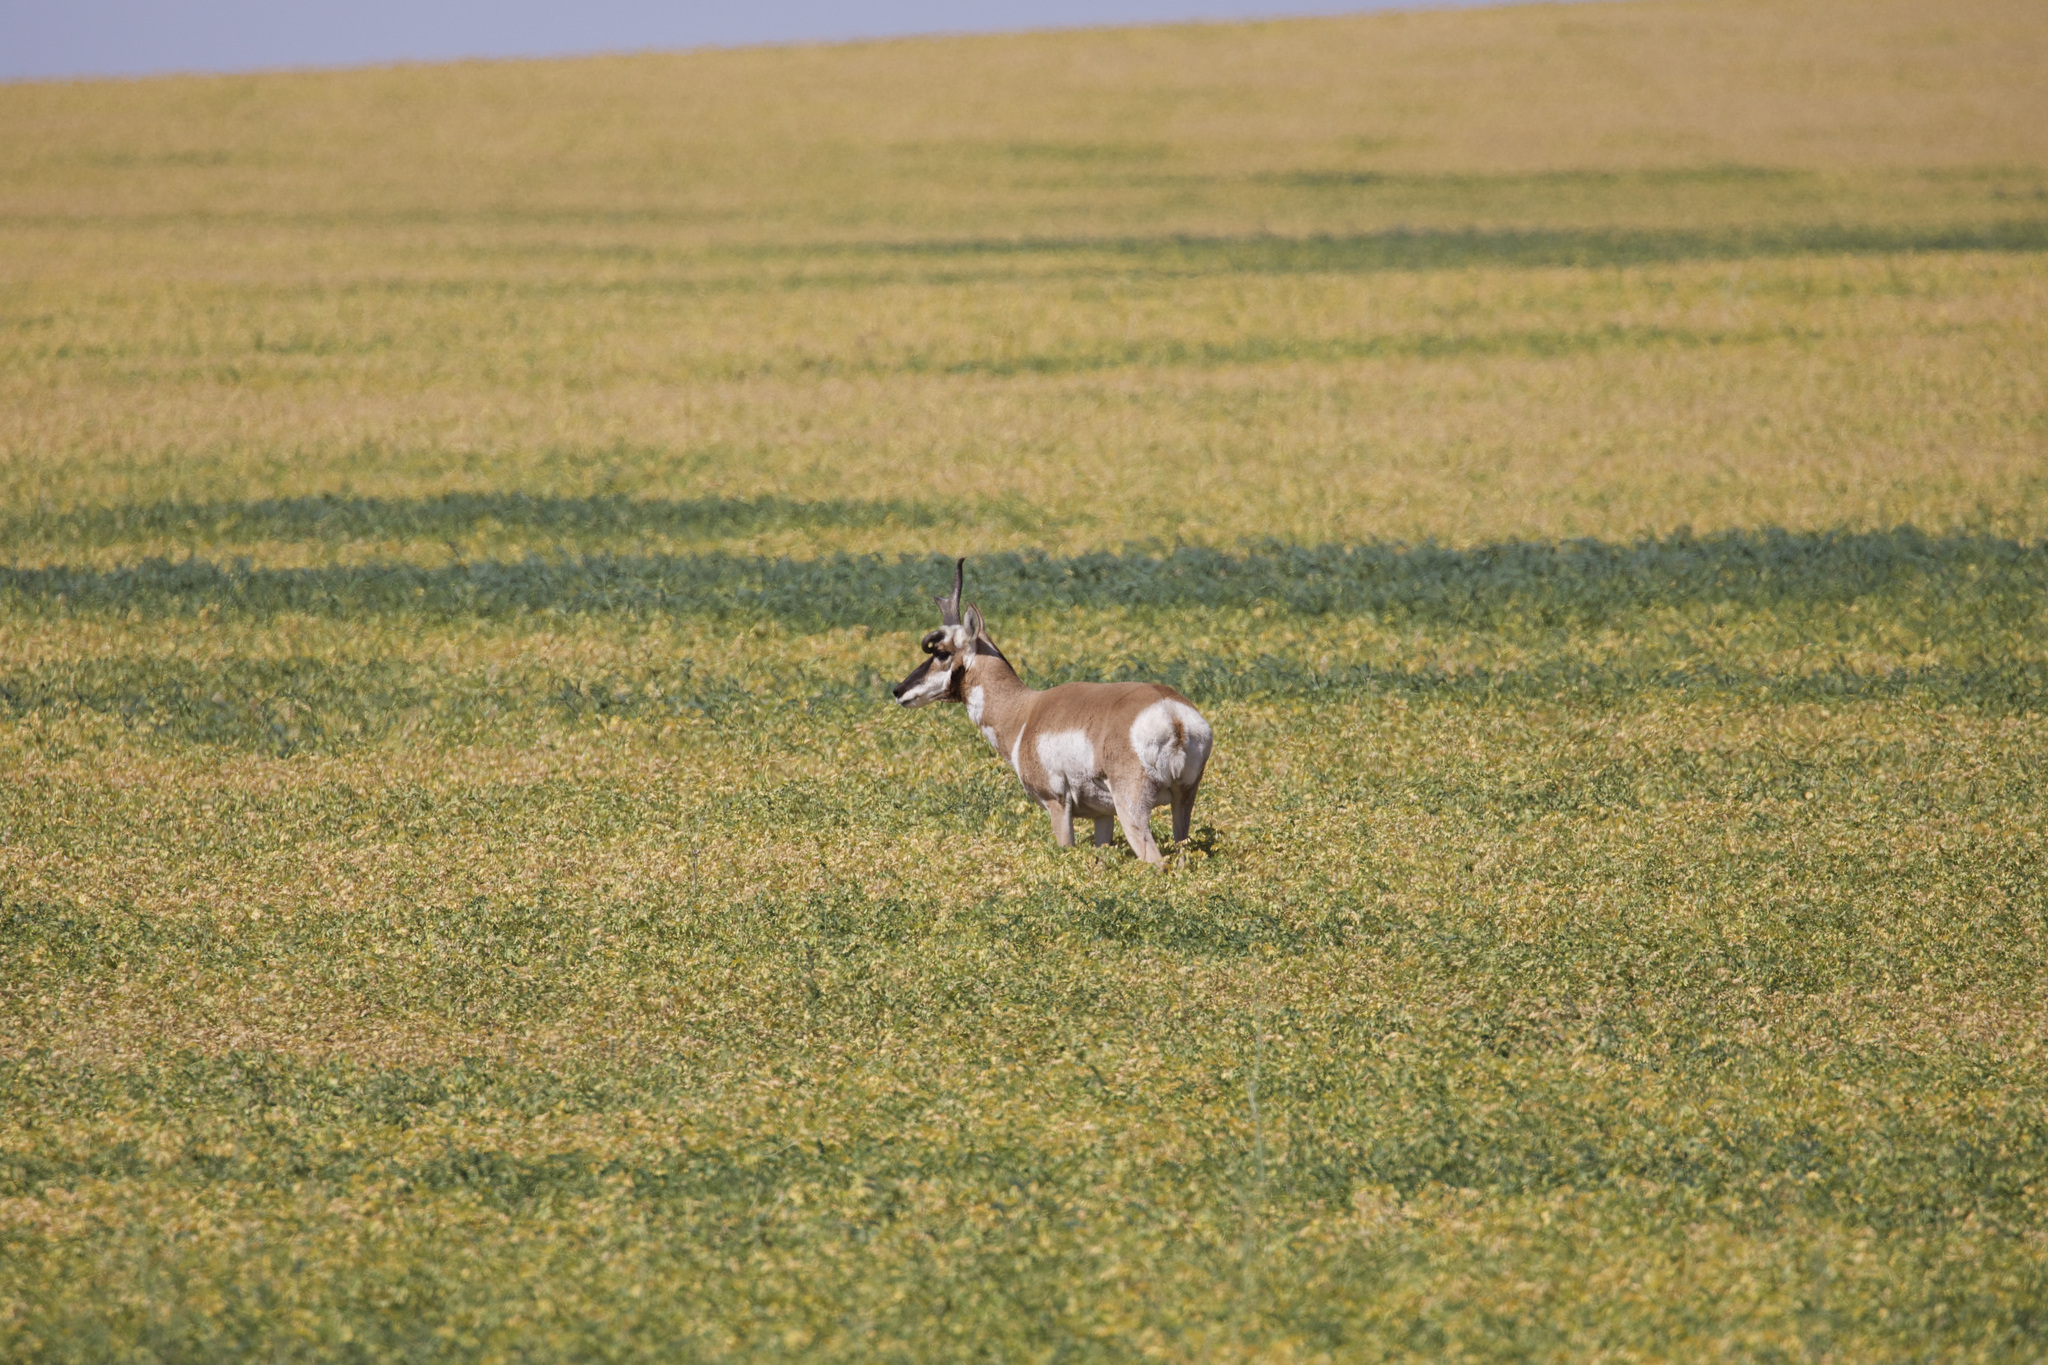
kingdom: Animalia
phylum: Chordata
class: Mammalia
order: Artiodactyla
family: Antilocapridae
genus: Antilocapra
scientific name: Antilocapra americana
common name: Pronghorn
